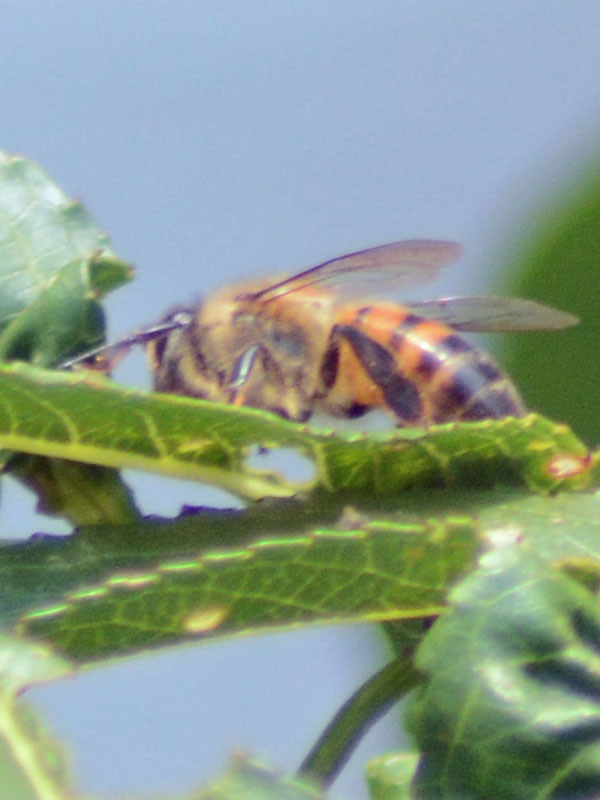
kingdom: Animalia
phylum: Arthropoda
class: Insecta
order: Hymenoptera
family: Apidae
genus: Apis
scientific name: Apis mellifera
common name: Honey bee
